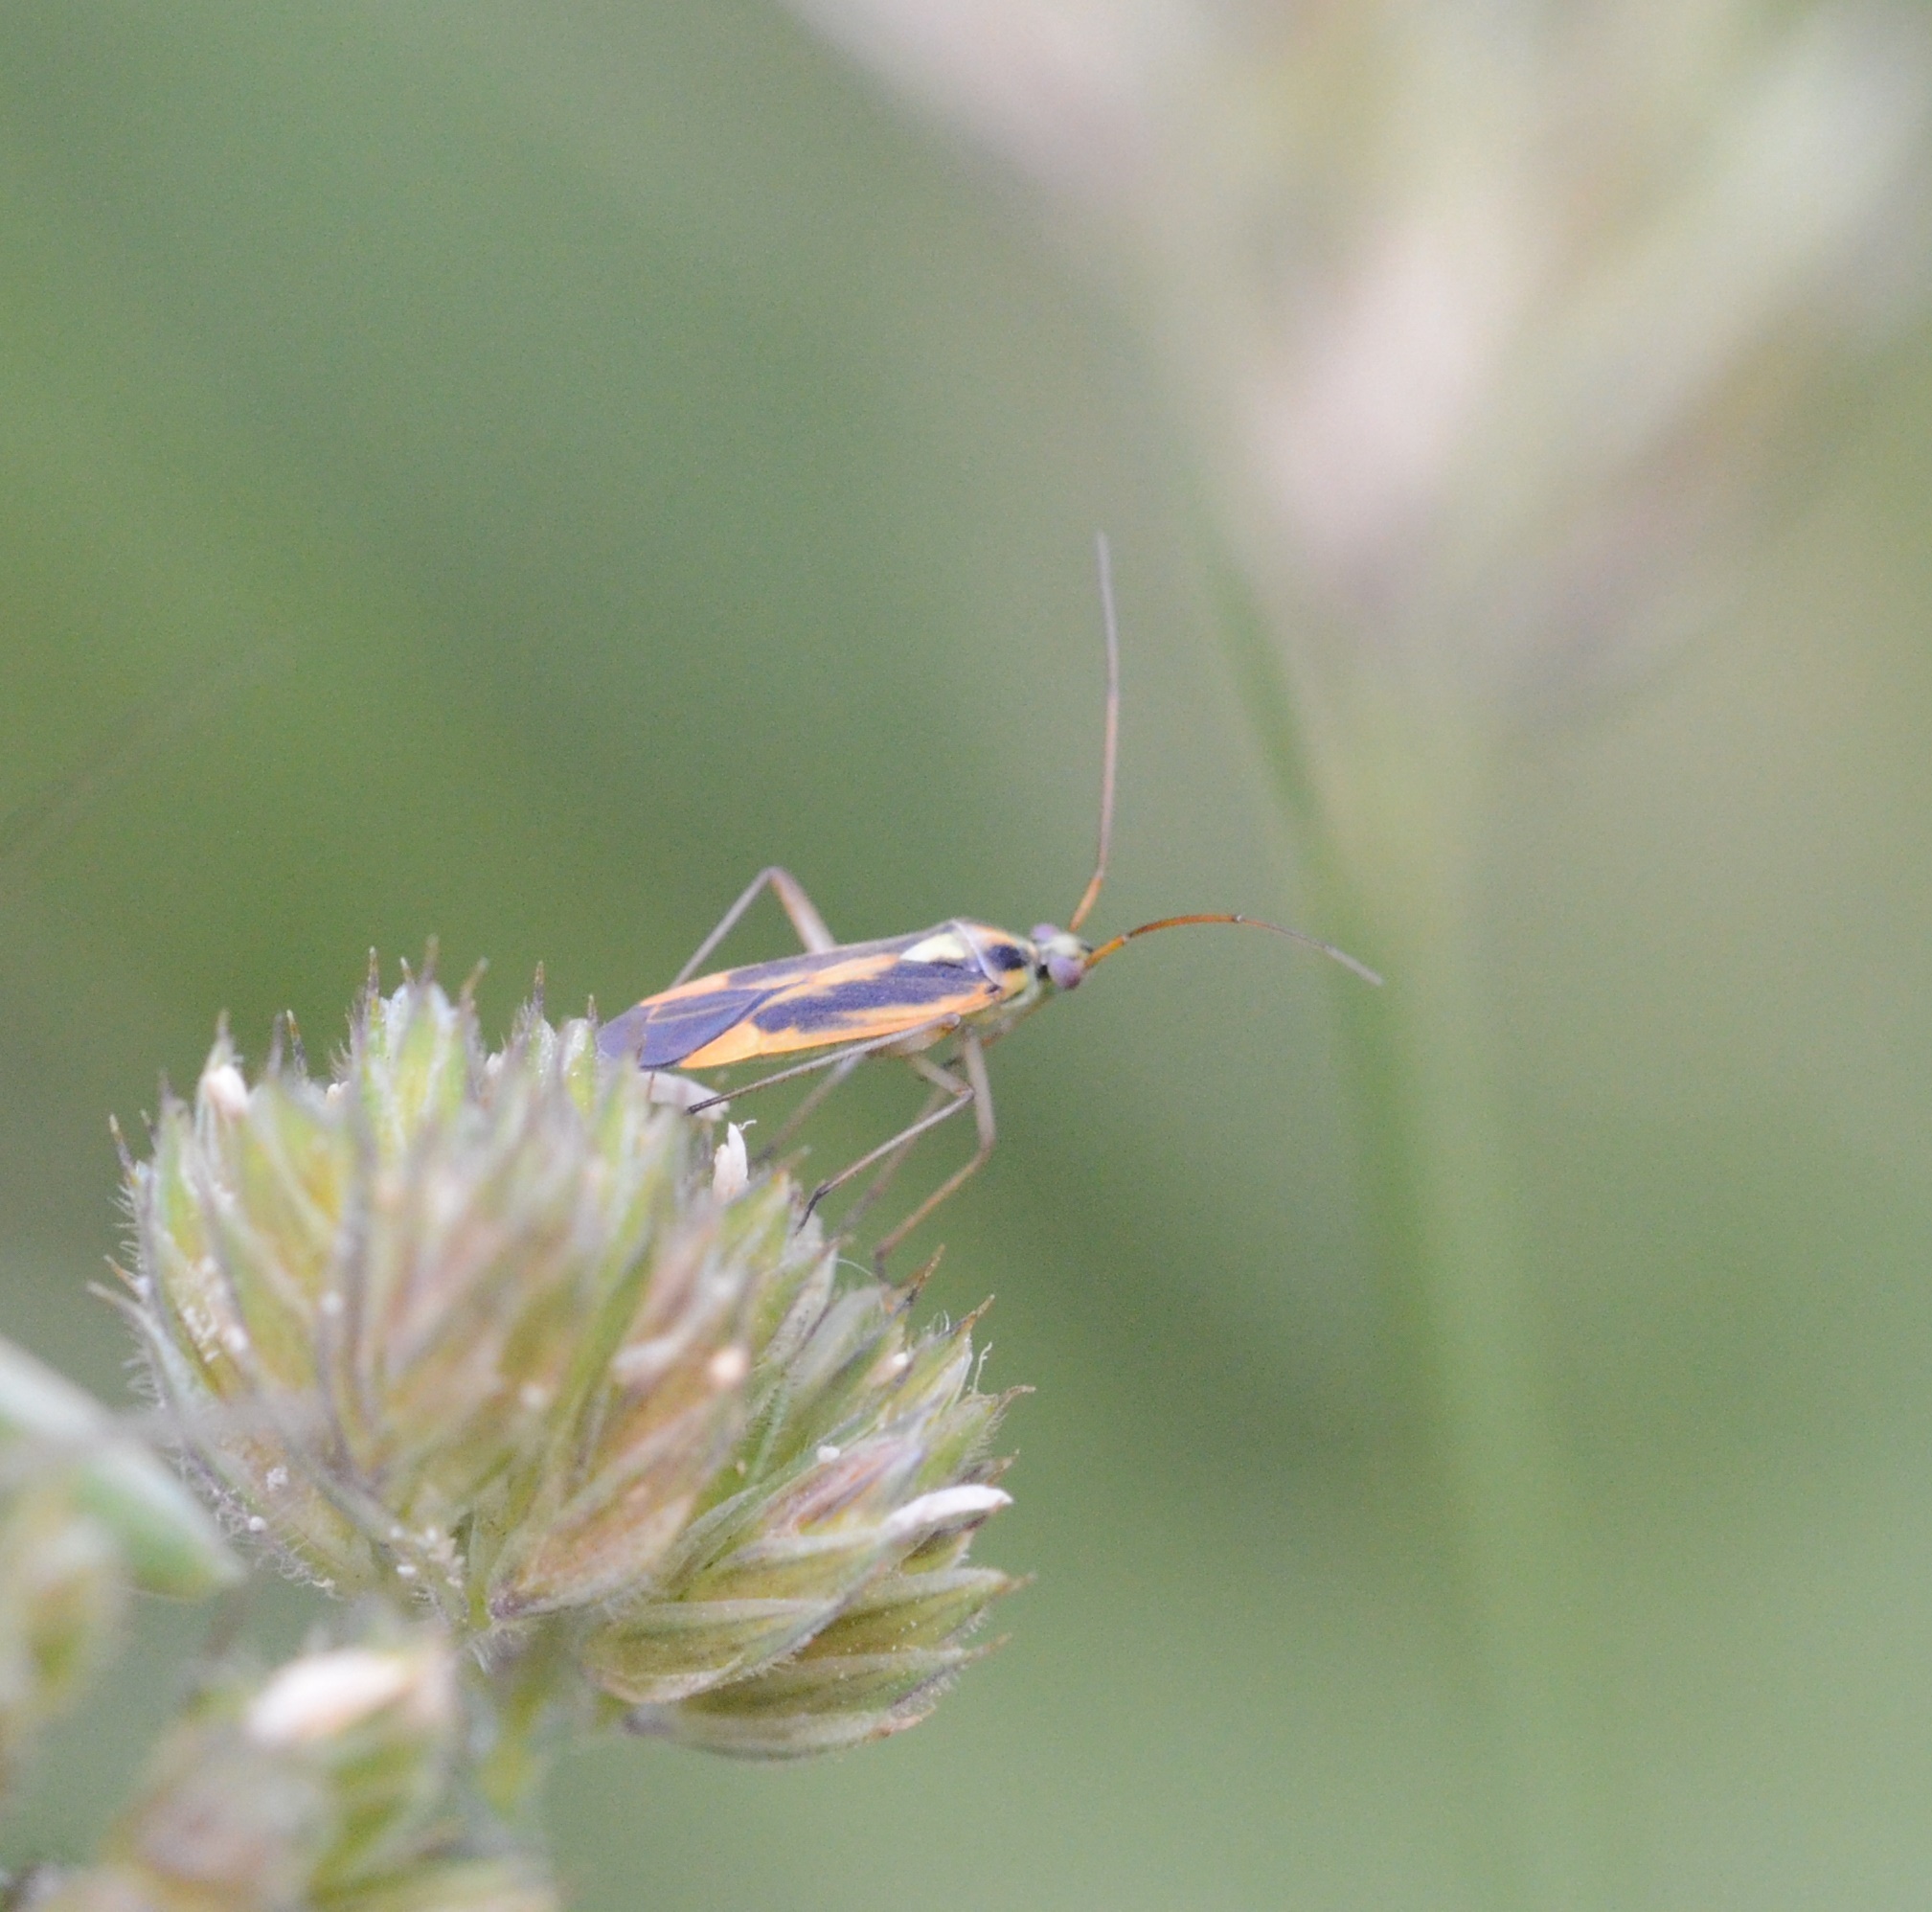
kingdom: Animalia
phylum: Arthropoda
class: Insecta
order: Hemiptera
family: Miridae
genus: Stenotus
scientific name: Stenotus binotatus
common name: Plant bug
